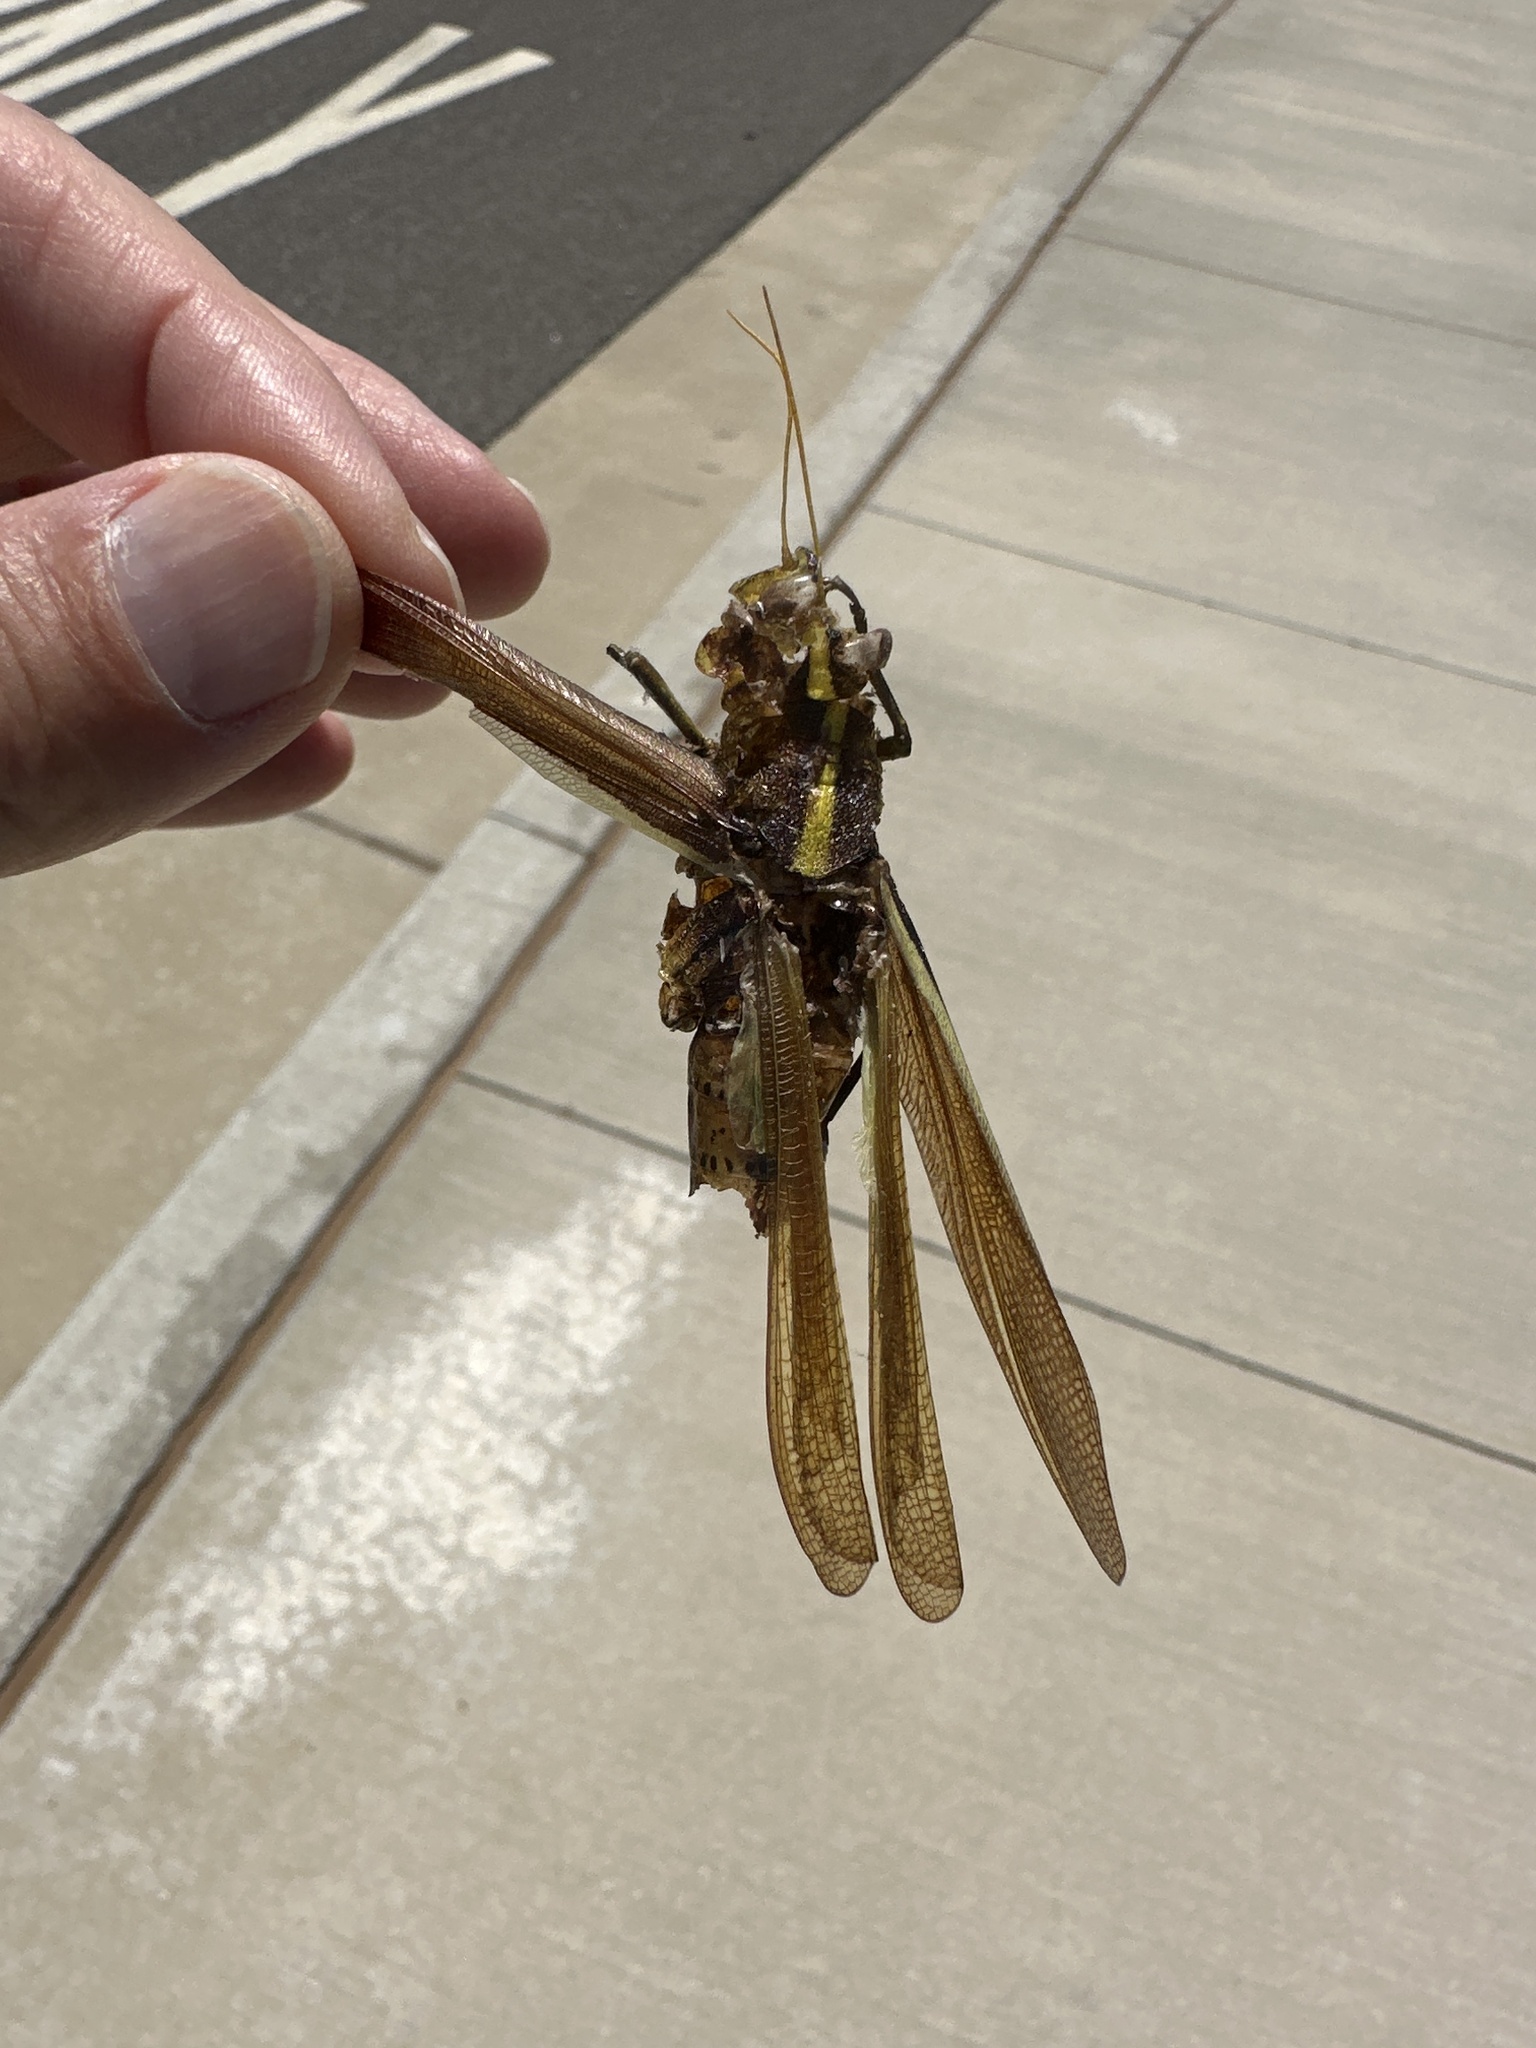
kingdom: Animalia
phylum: Arthropoda
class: Insecta
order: Orthoptera
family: Acrididae
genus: Schistocerca
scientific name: Schistocerca obscura
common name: Obscure bird grasshopper
